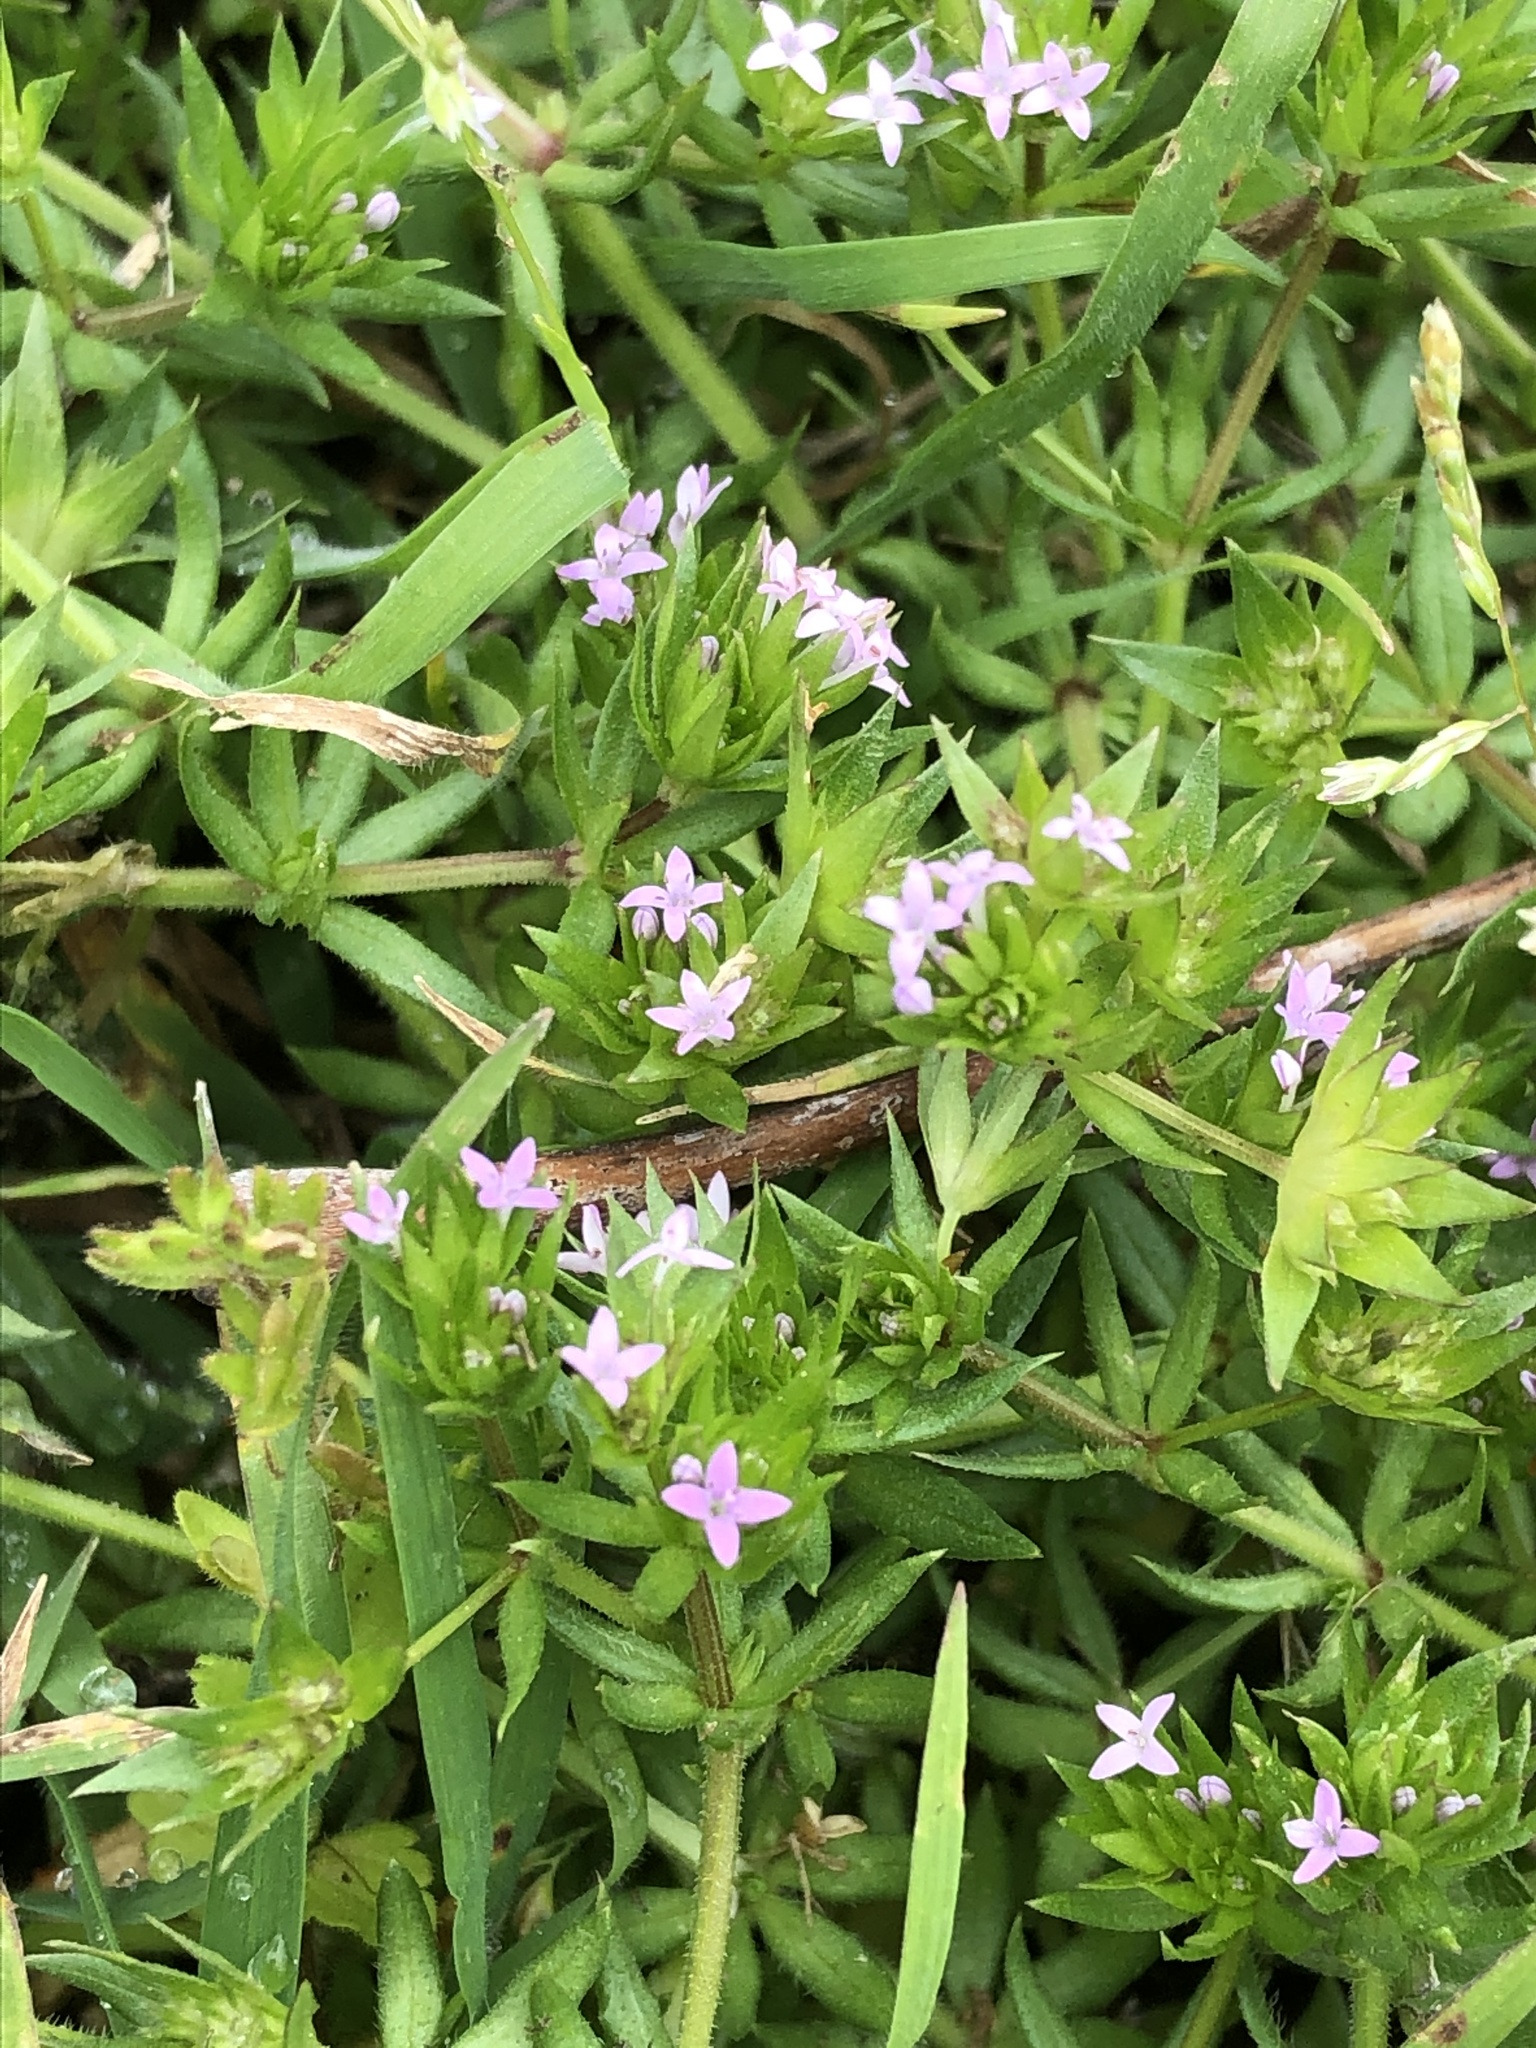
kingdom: Plantae
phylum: Tracheophyta
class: Magnoliopsida
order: Gentianales
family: Rubiaceae
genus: Sherardia
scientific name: Sherardia arvensis
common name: Field madder
